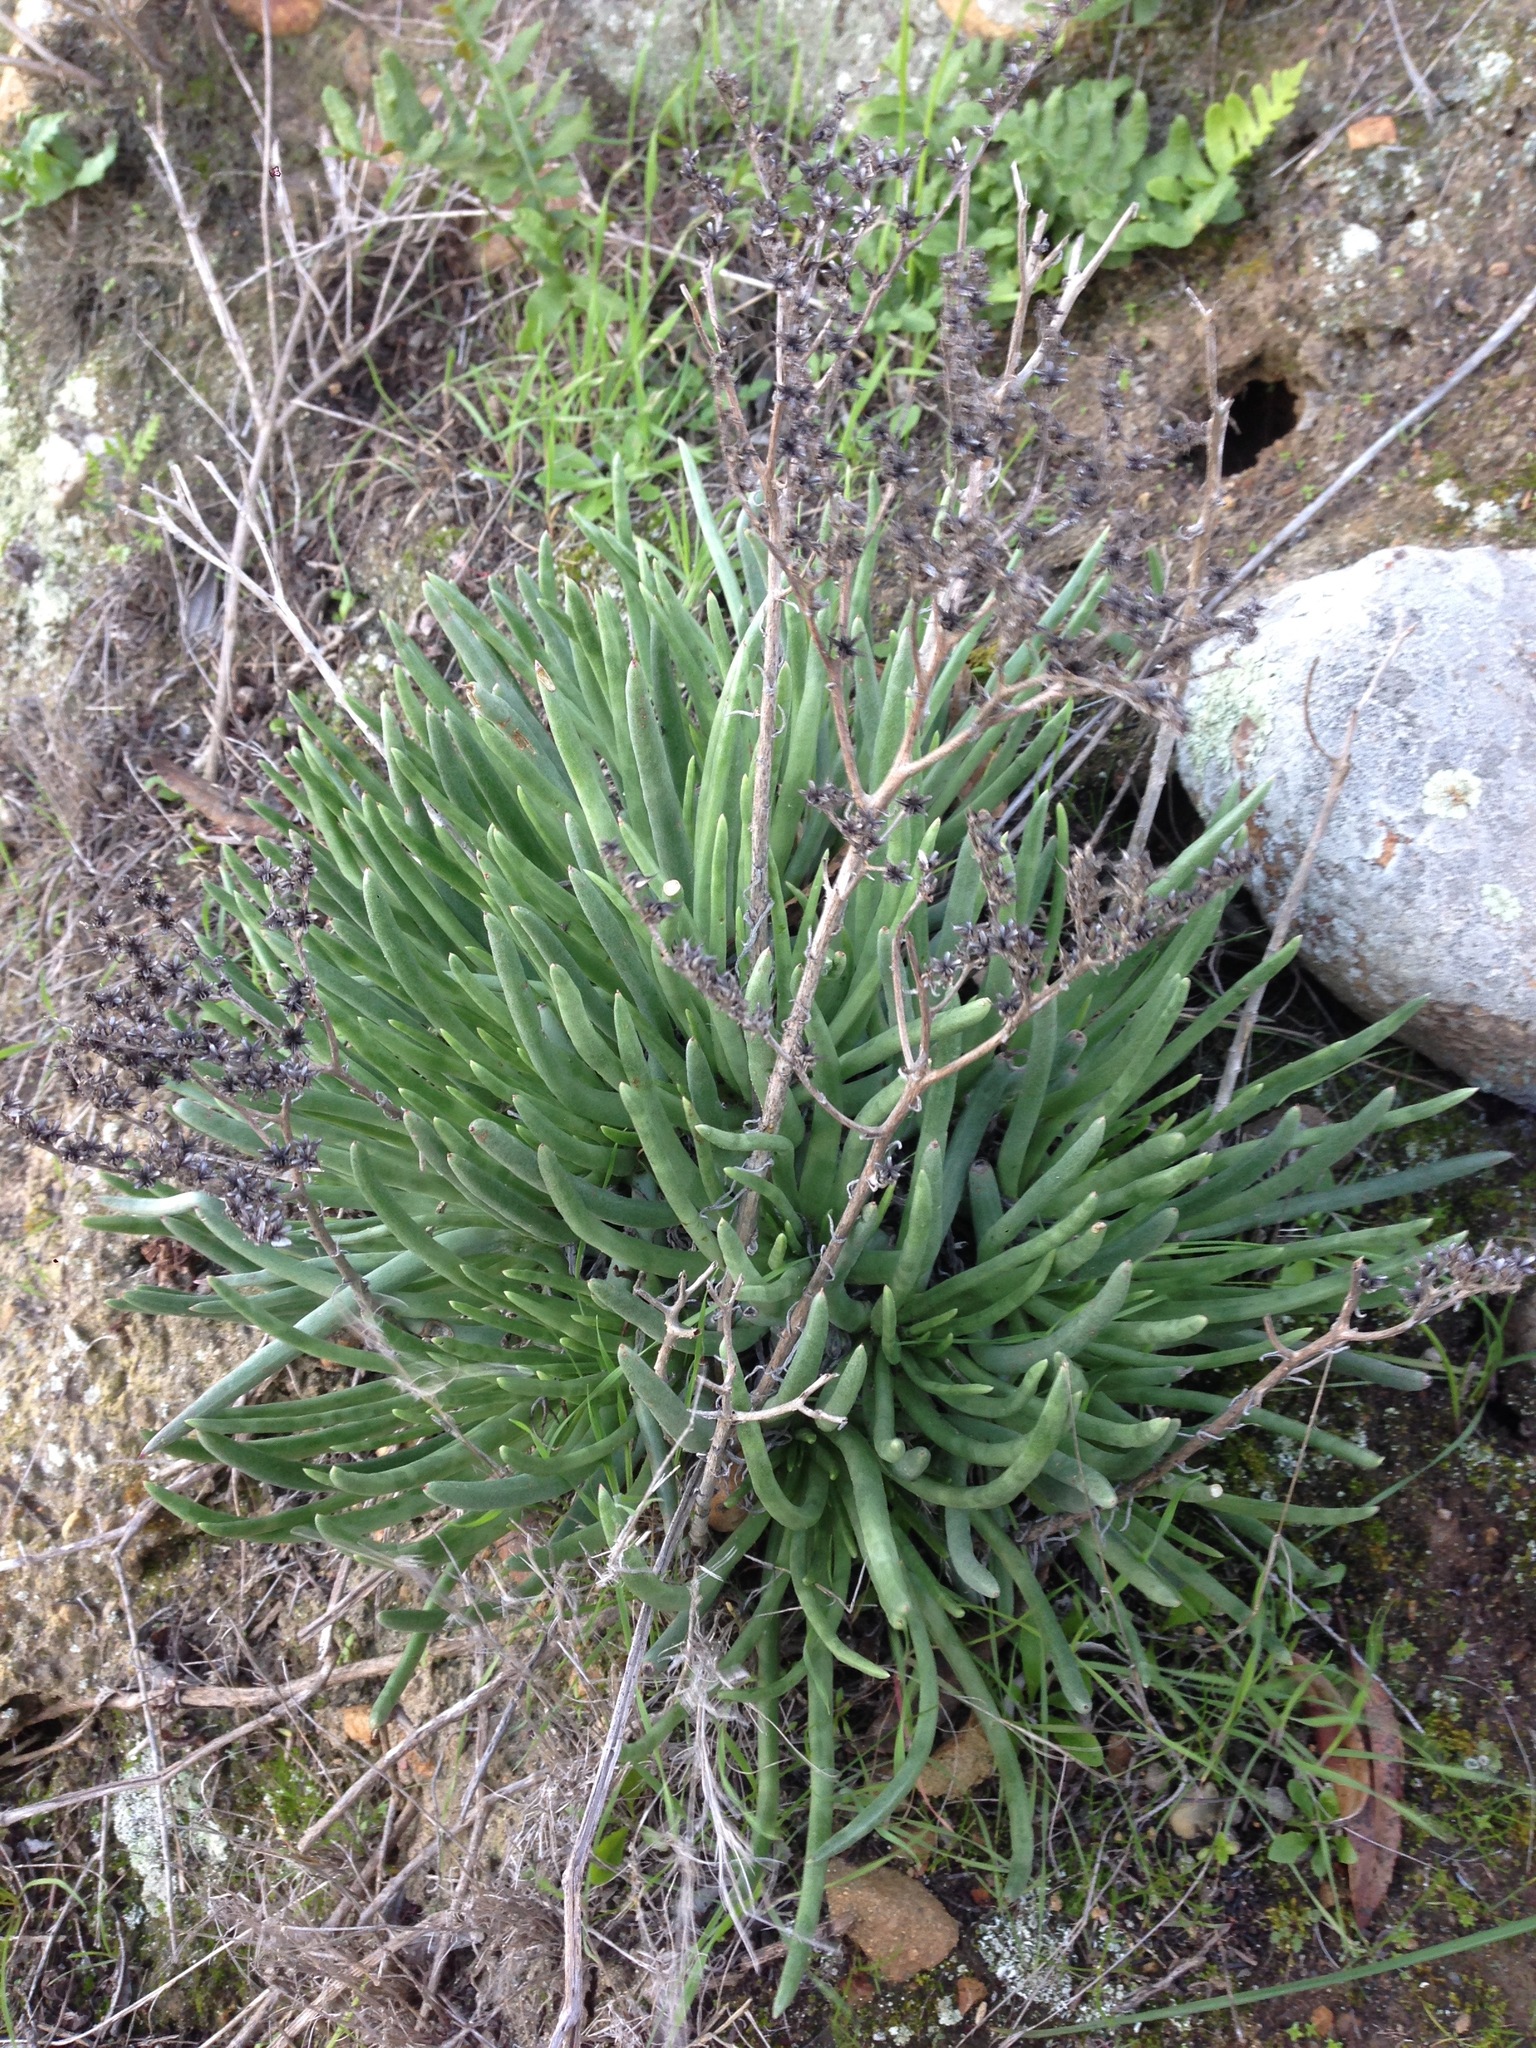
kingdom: Plantae
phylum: Tracheophyta
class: Magnoliopsida
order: Saxifragales
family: Crassulaceae
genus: Dudleya
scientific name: Dudleya edulis
